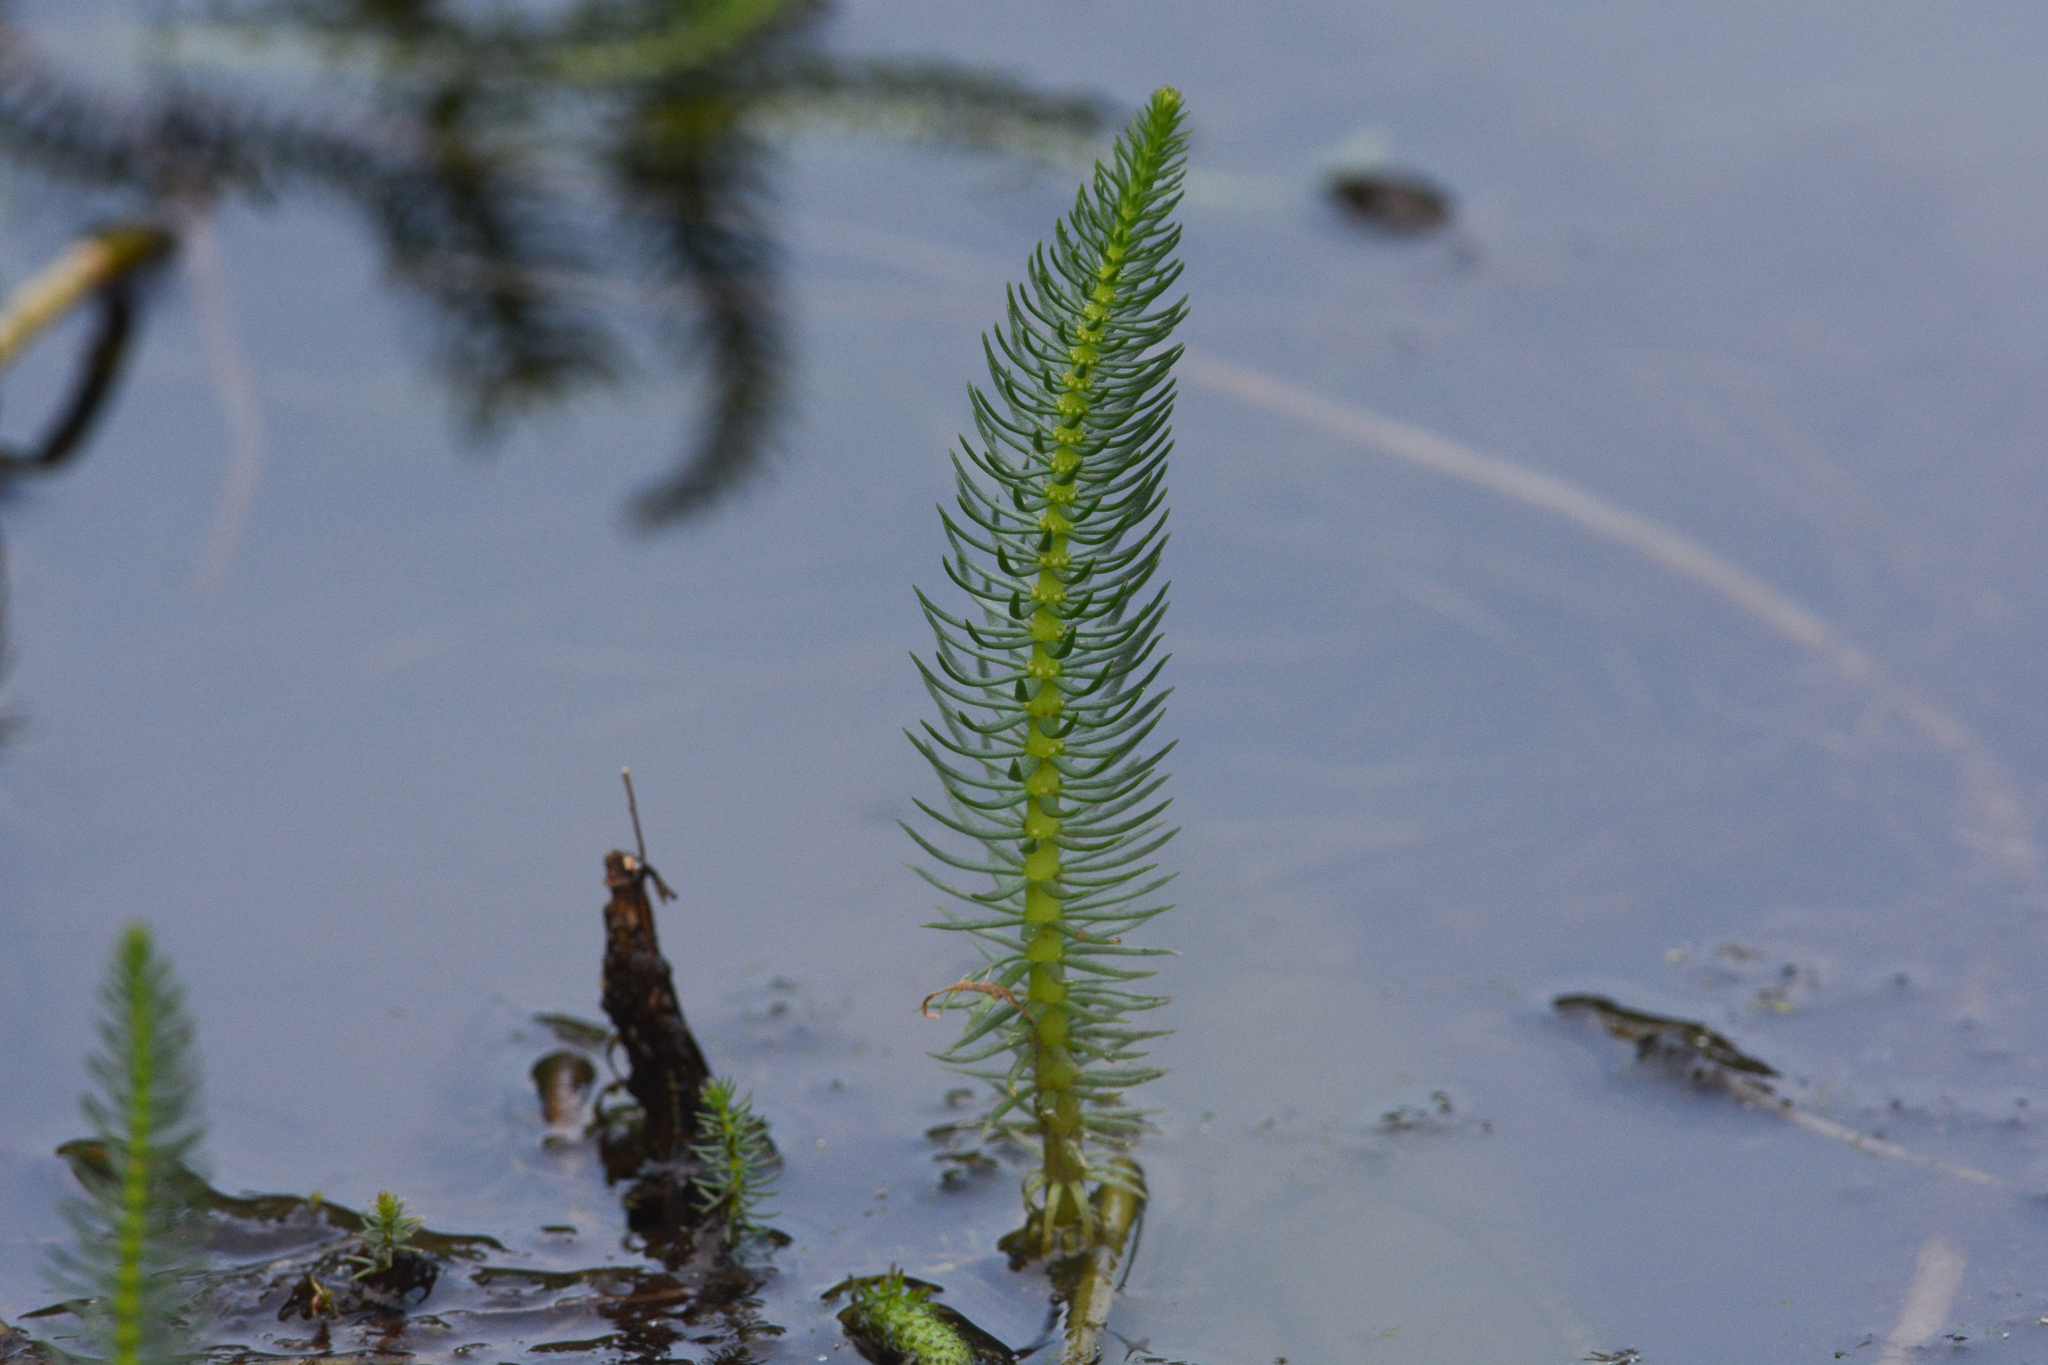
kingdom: Plantae
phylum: Tracheophyta
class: Magnoliopsida
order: Lamiales
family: Plantaginaceae
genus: Hippuris
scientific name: Hippuris vulgaris
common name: Mare's-tail
